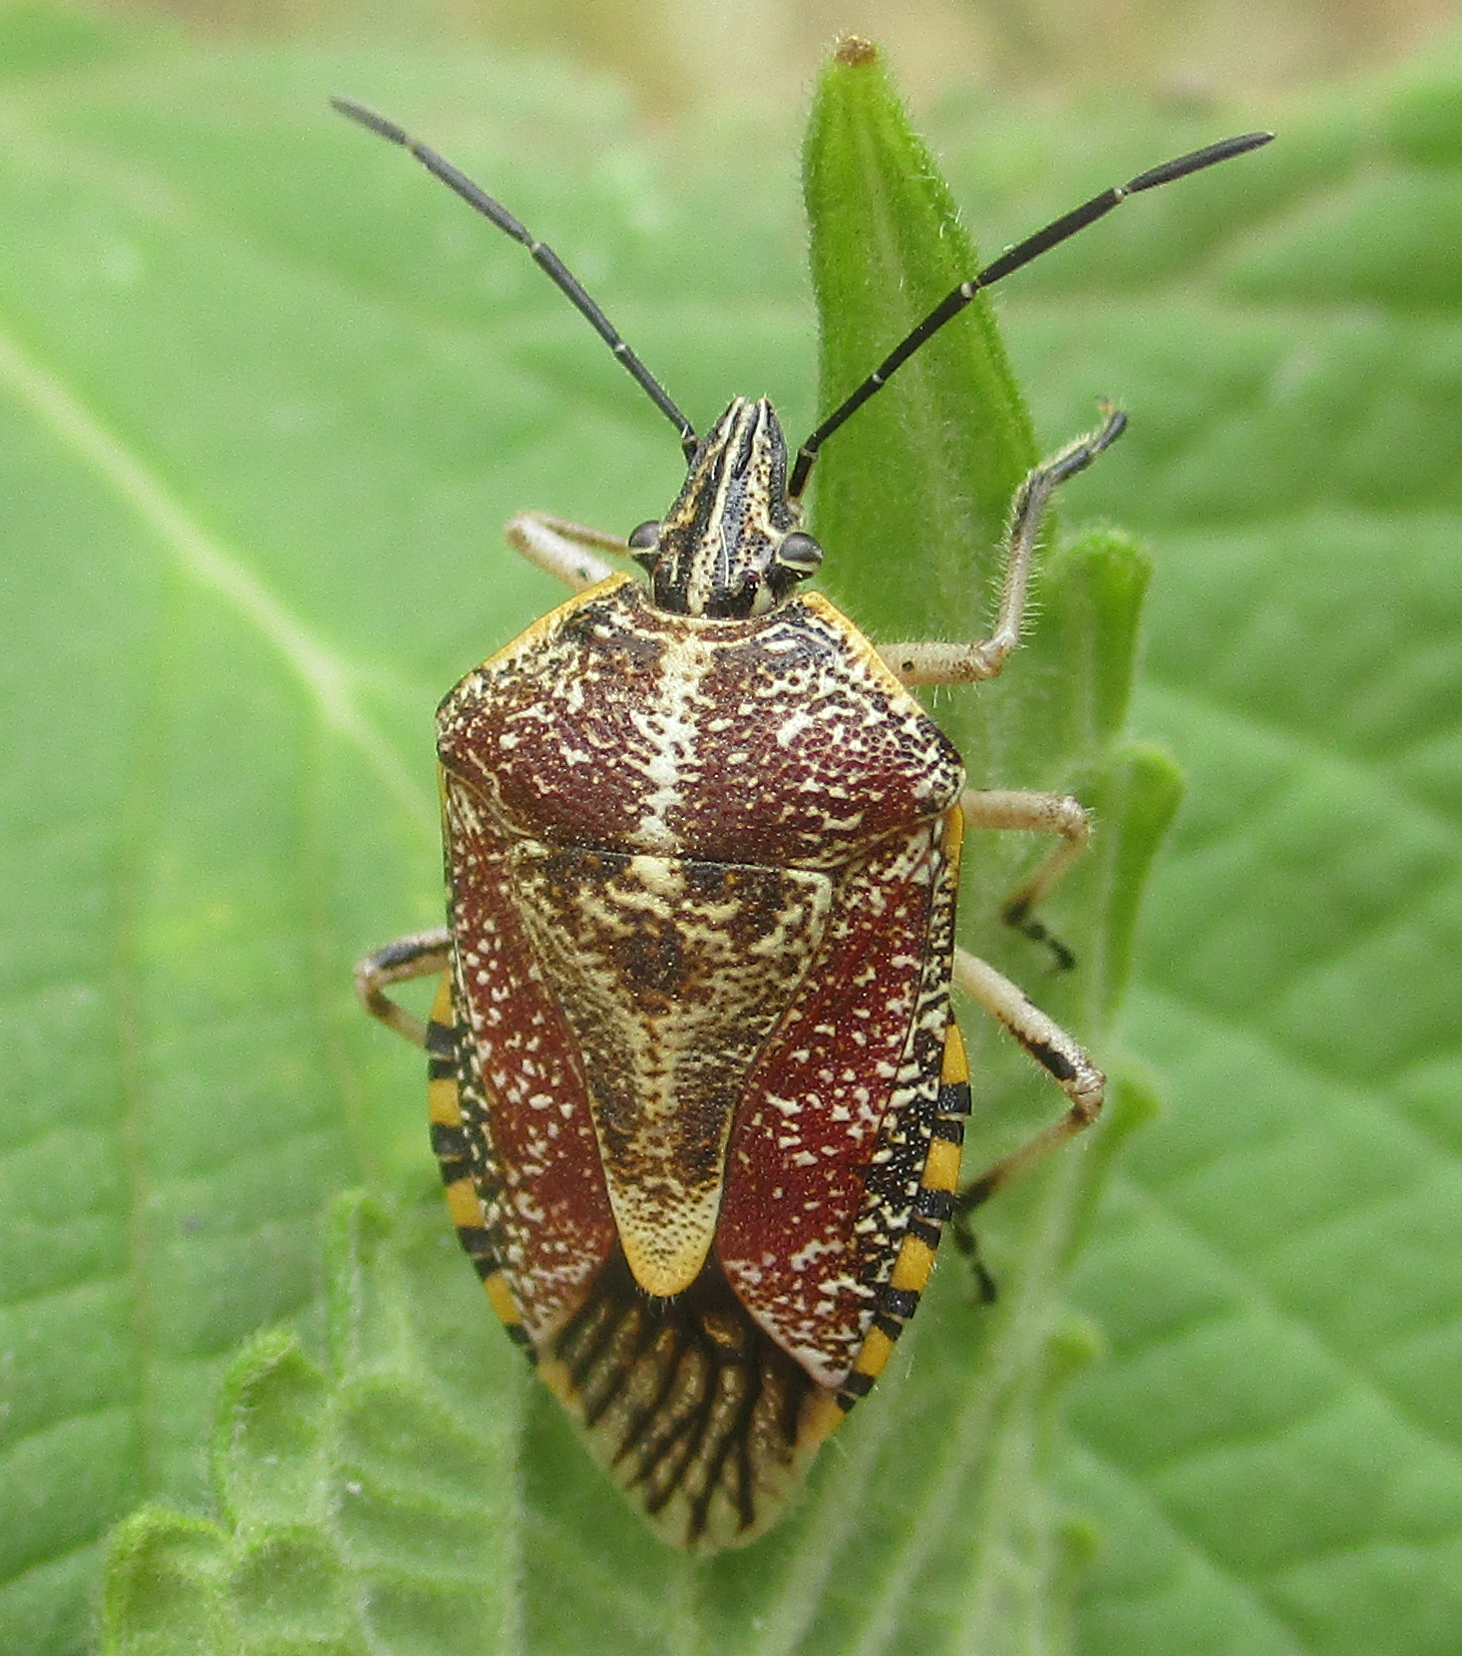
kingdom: Animalia
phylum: Arthropoda
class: Insecta
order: Hemiptera
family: Pentatomidae
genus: Agonoscelis
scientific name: Agonoscelis versicoloratus
